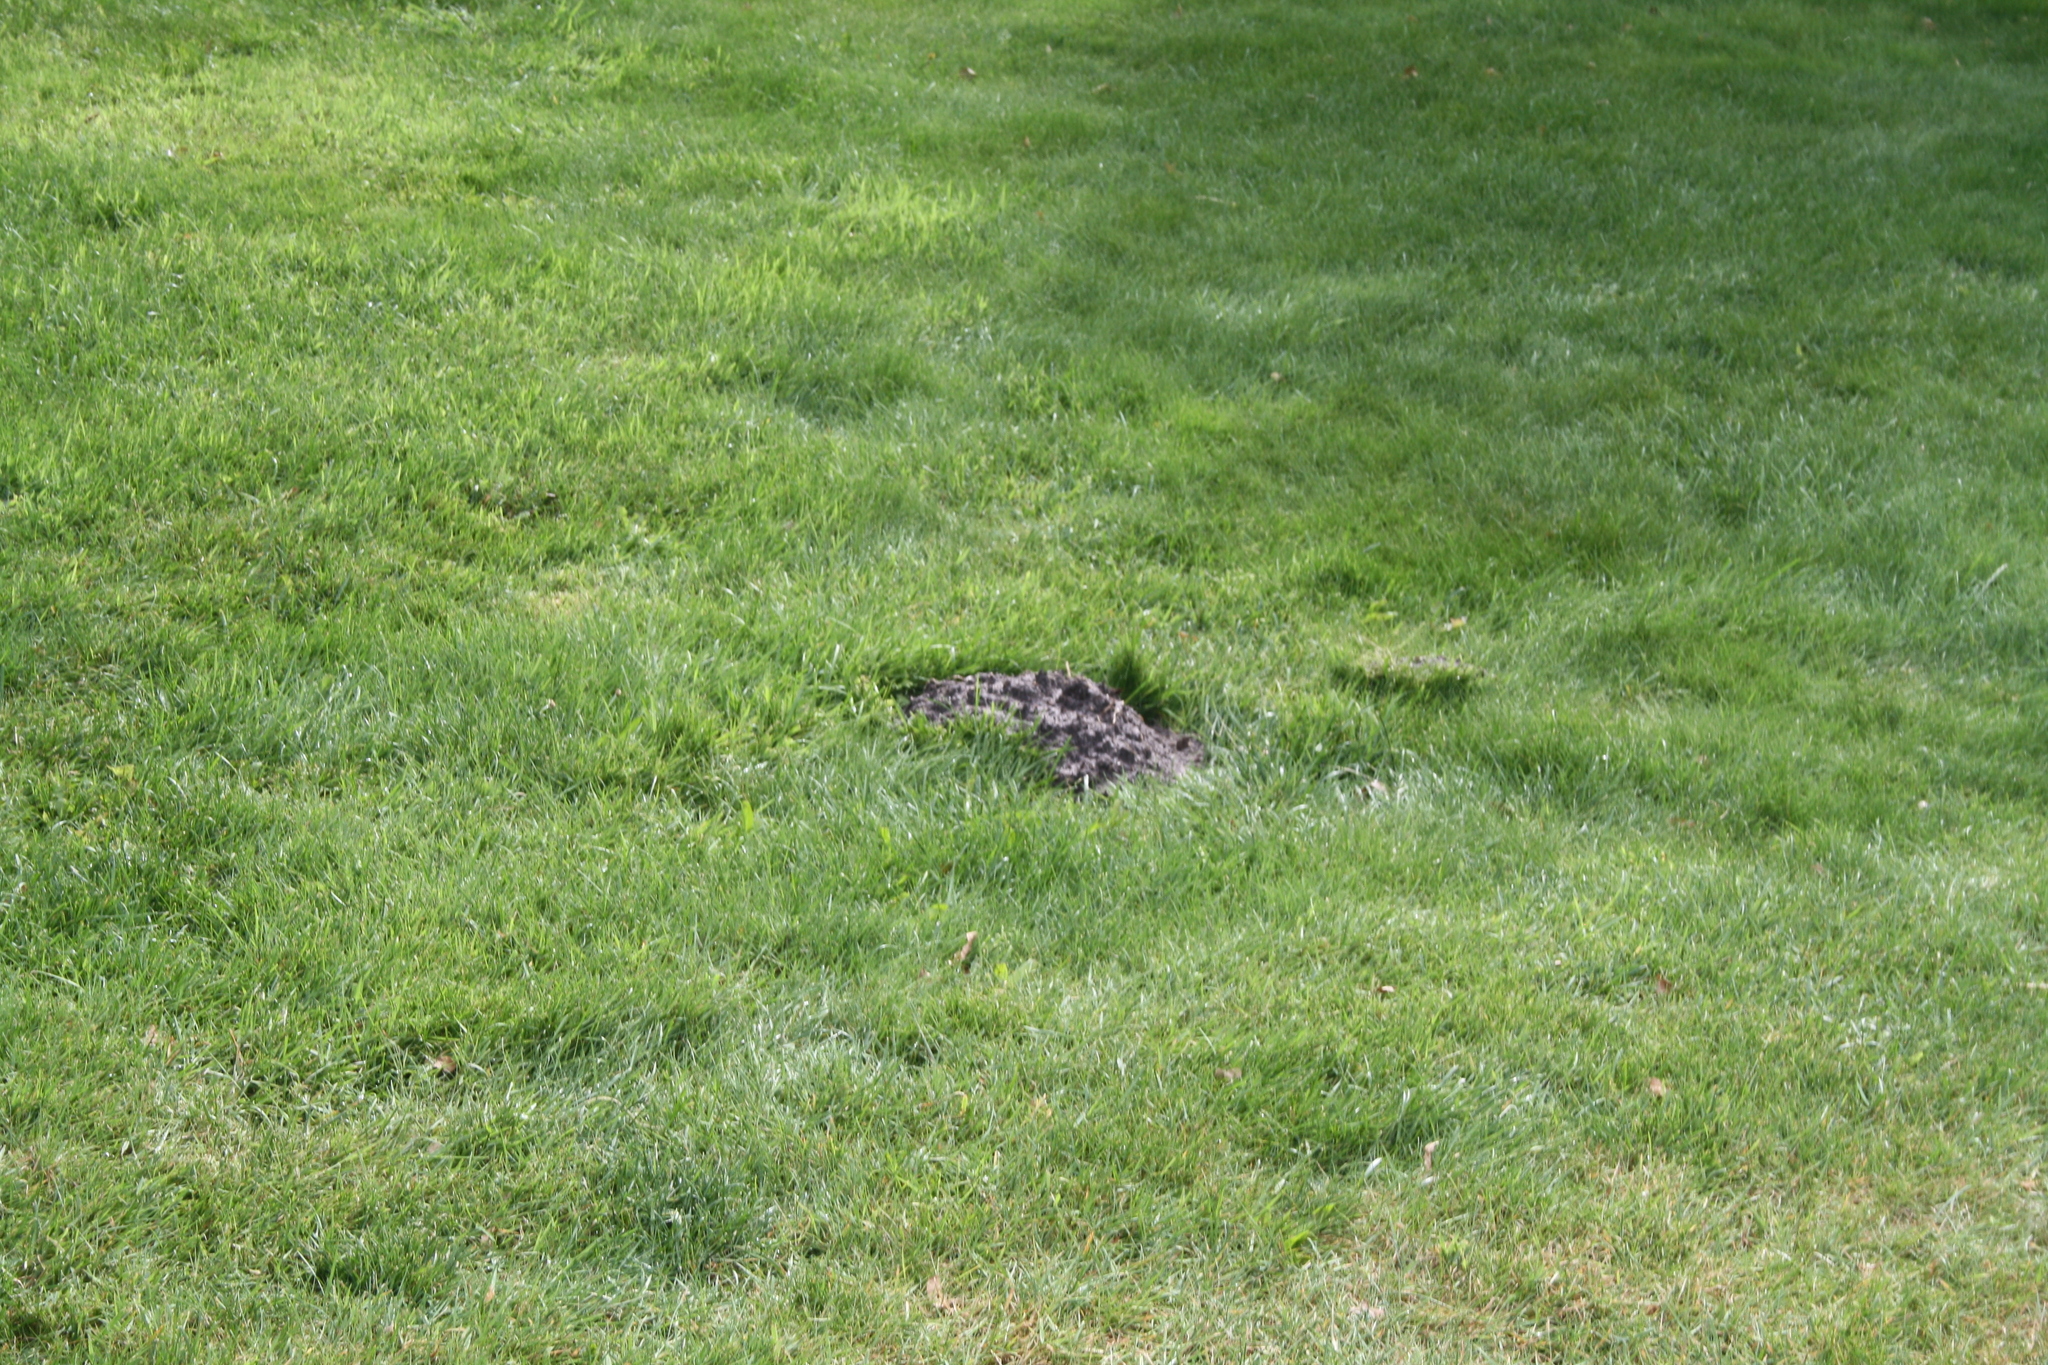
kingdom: Animalia
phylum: Chordata
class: Mammalia
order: Soricomorpha
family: Talpidae
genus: Talpa
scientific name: Talpa europaea
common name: European mole
